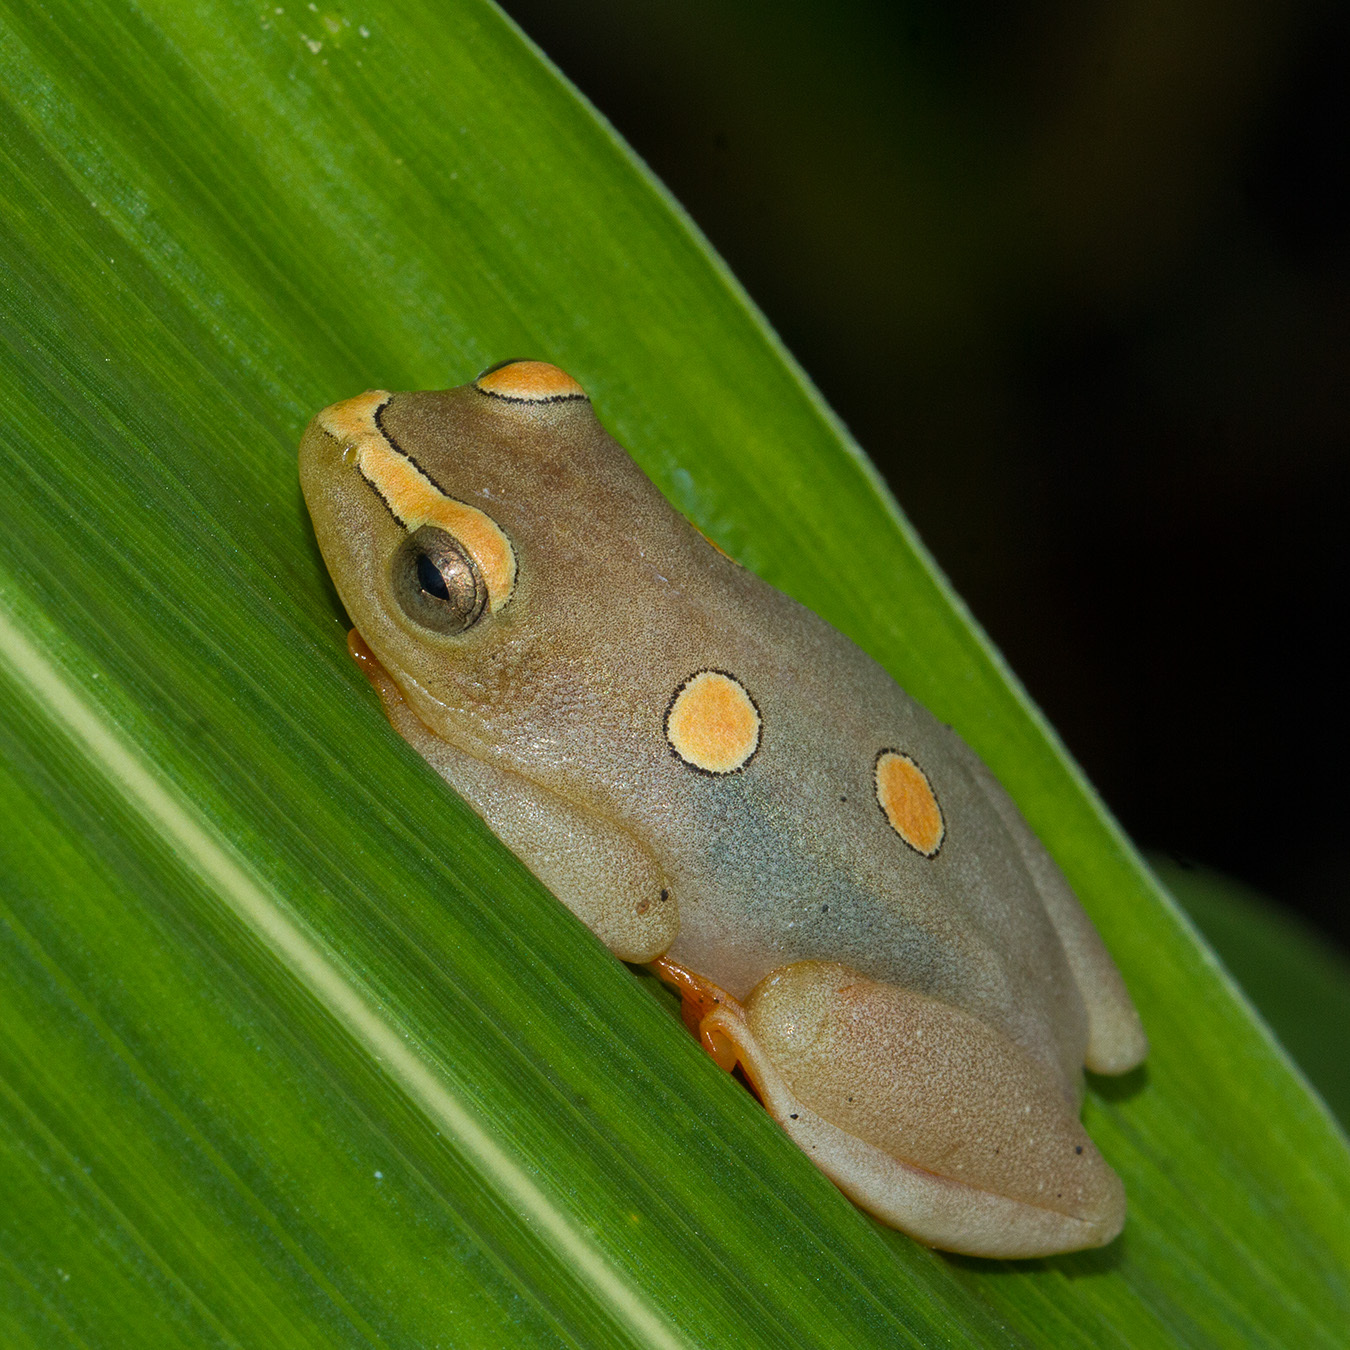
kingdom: Animalia
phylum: Chordata
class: Amphibia
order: Anura
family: Hyperoliidae
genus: Hyperolius
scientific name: Hyperolius argus
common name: Argus reed frog
